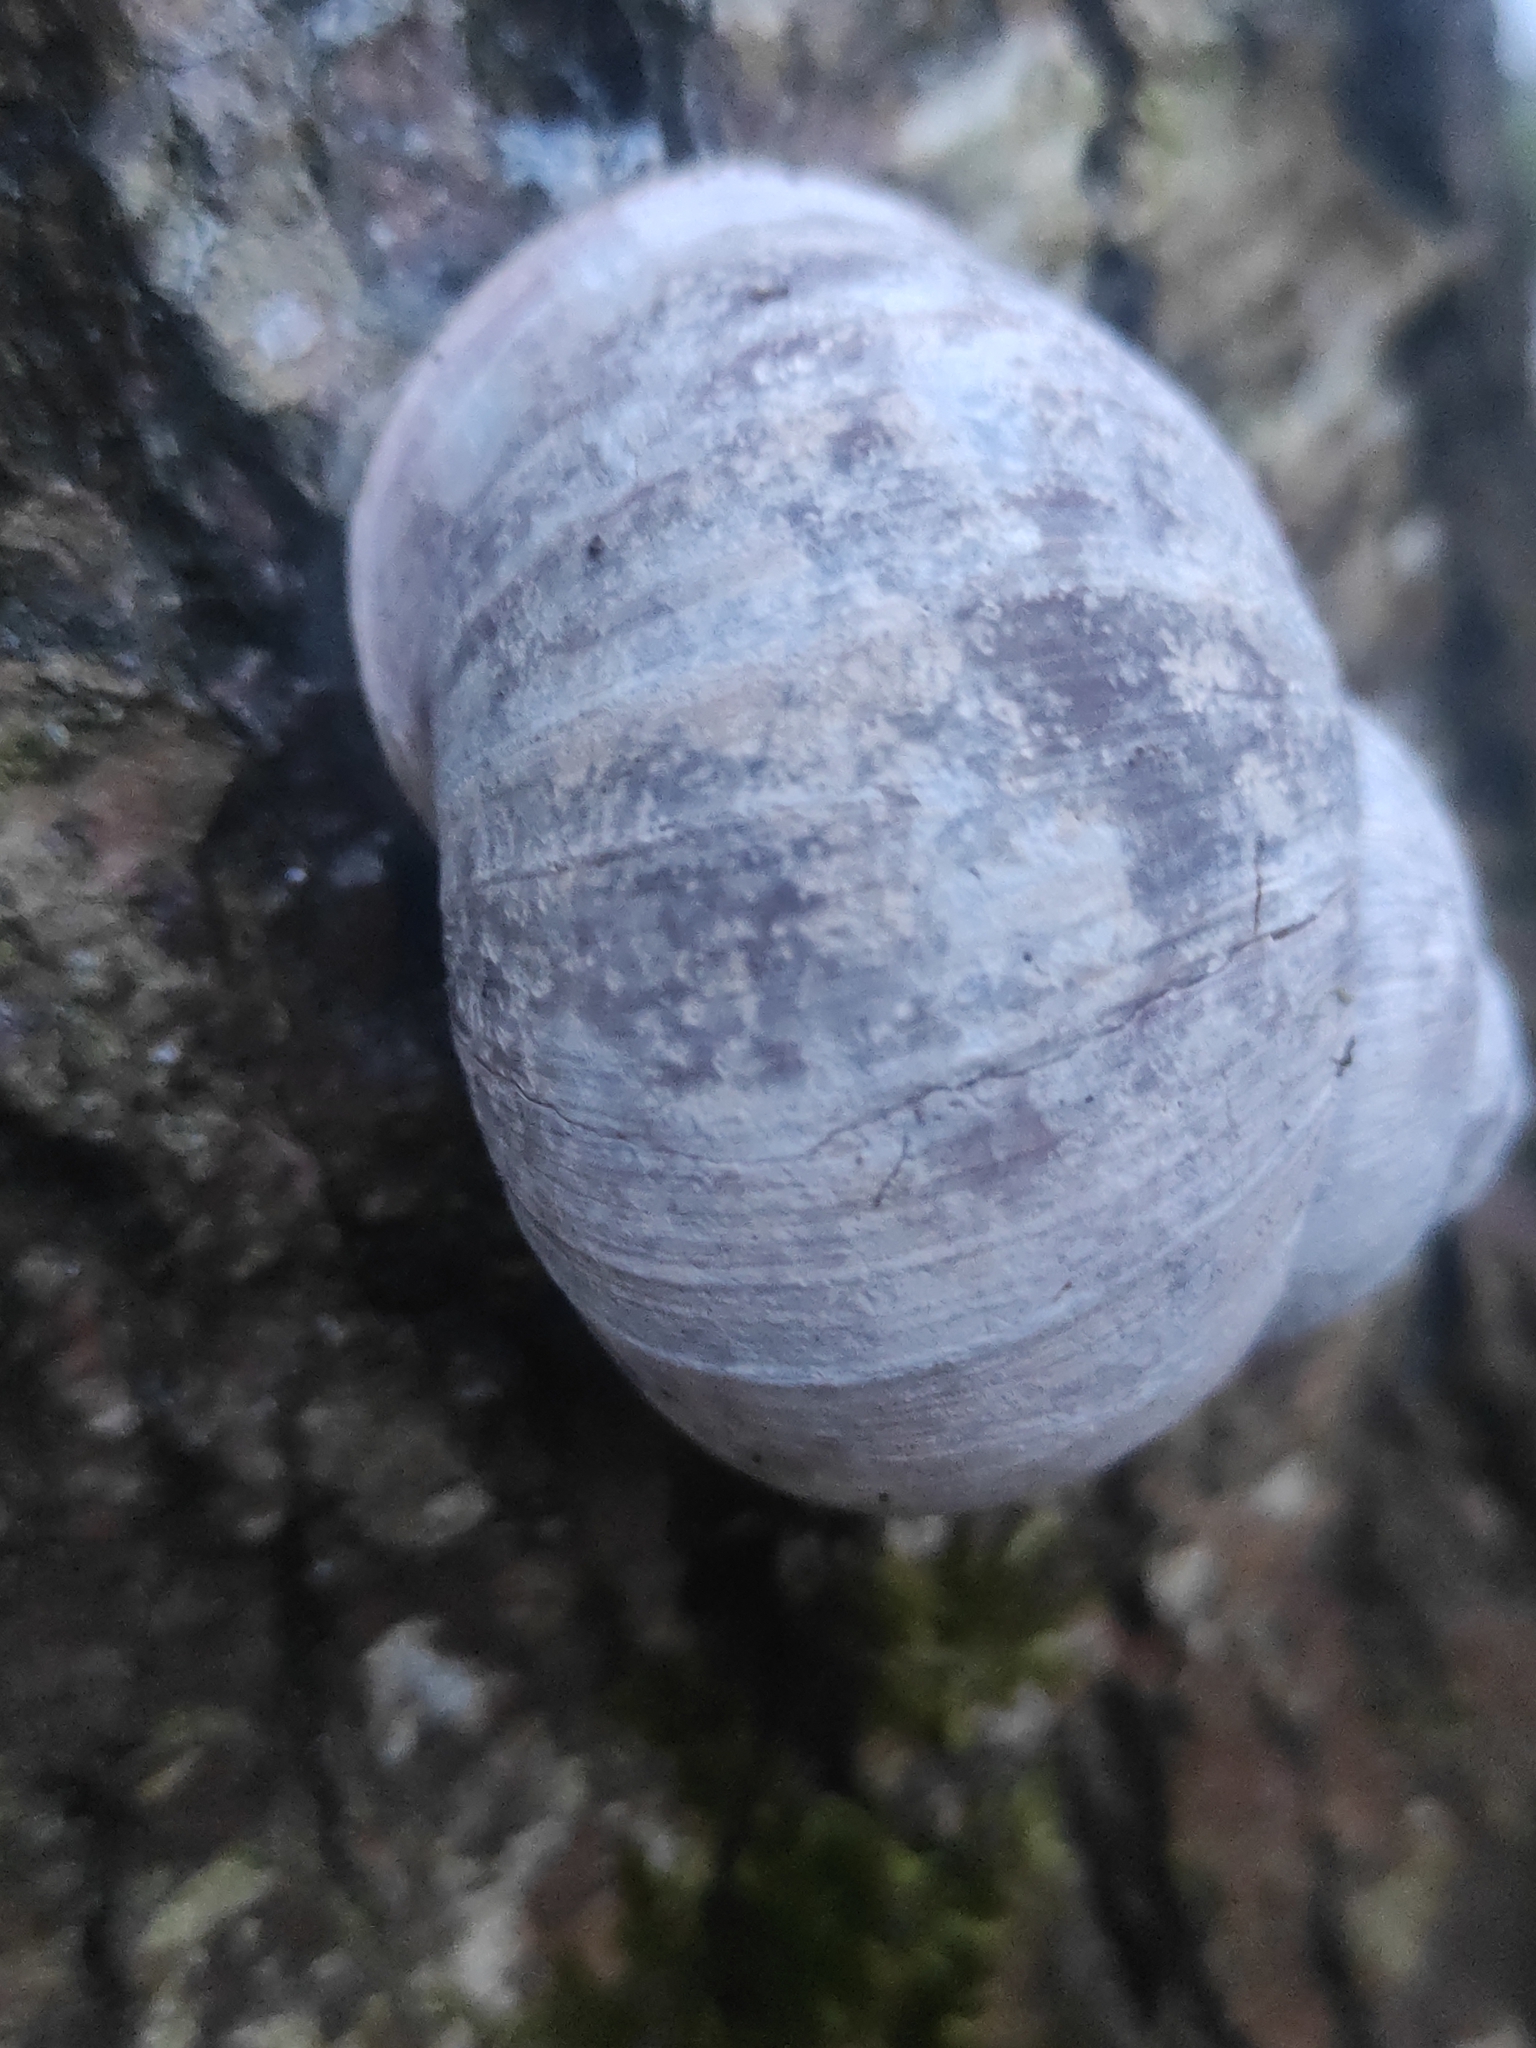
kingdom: Animalia
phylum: Mollusca
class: Gastropoda
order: Stylommatophora
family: Helicidae
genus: Helix
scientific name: Helix pomatia
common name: Roman snail
